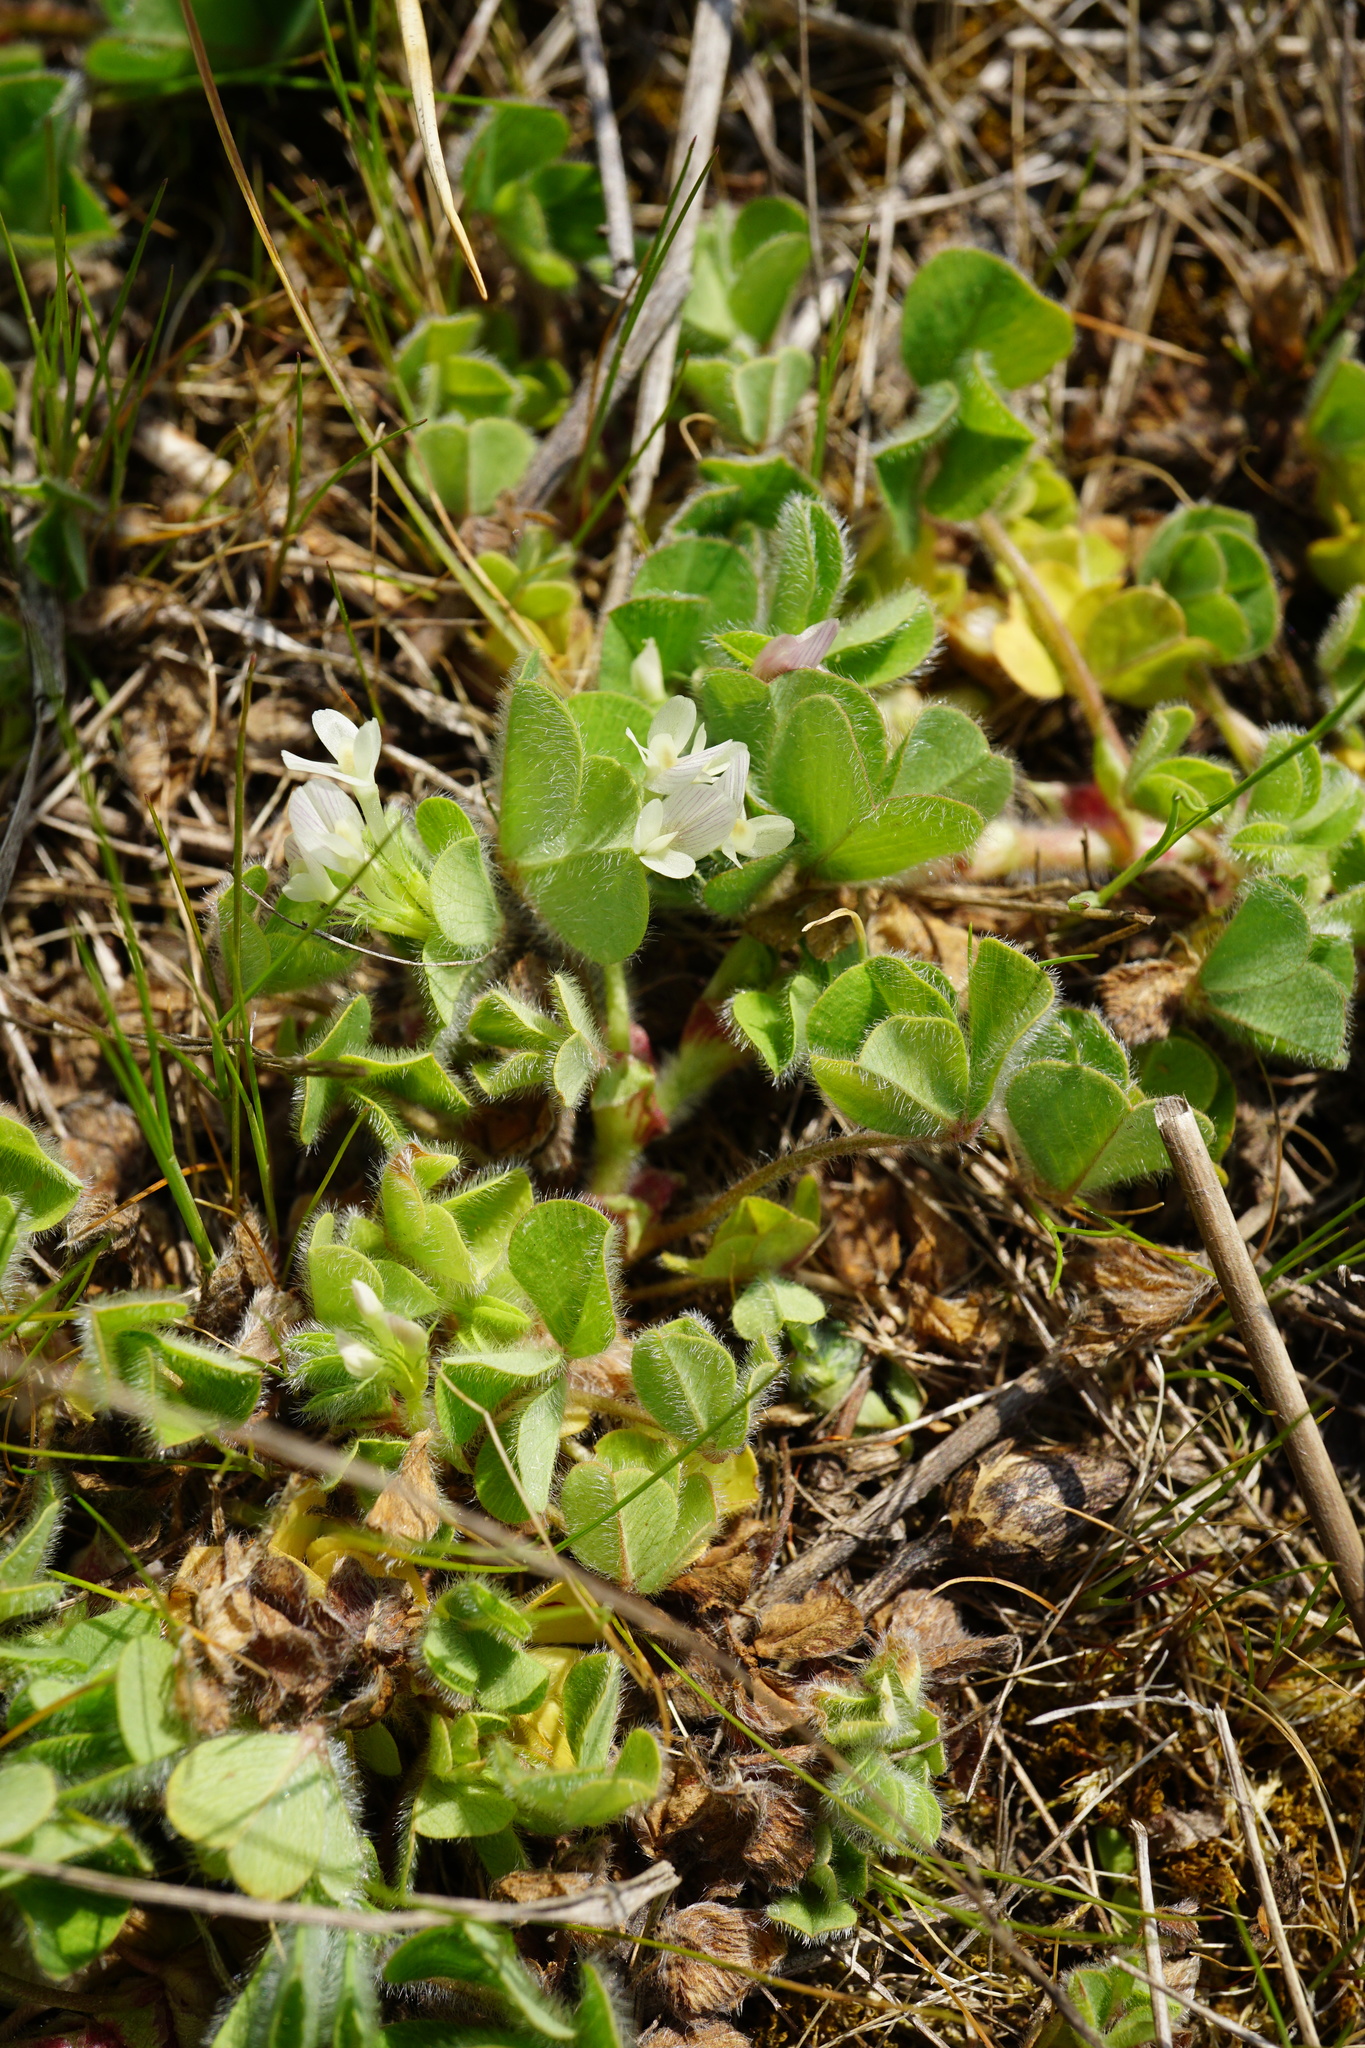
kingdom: Plantae
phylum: Tracheophyta
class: Magnoliopsida
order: Fabales
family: Fabaceae
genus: Trifolium
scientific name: Trifolium subterraneum
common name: Subterranean clover
